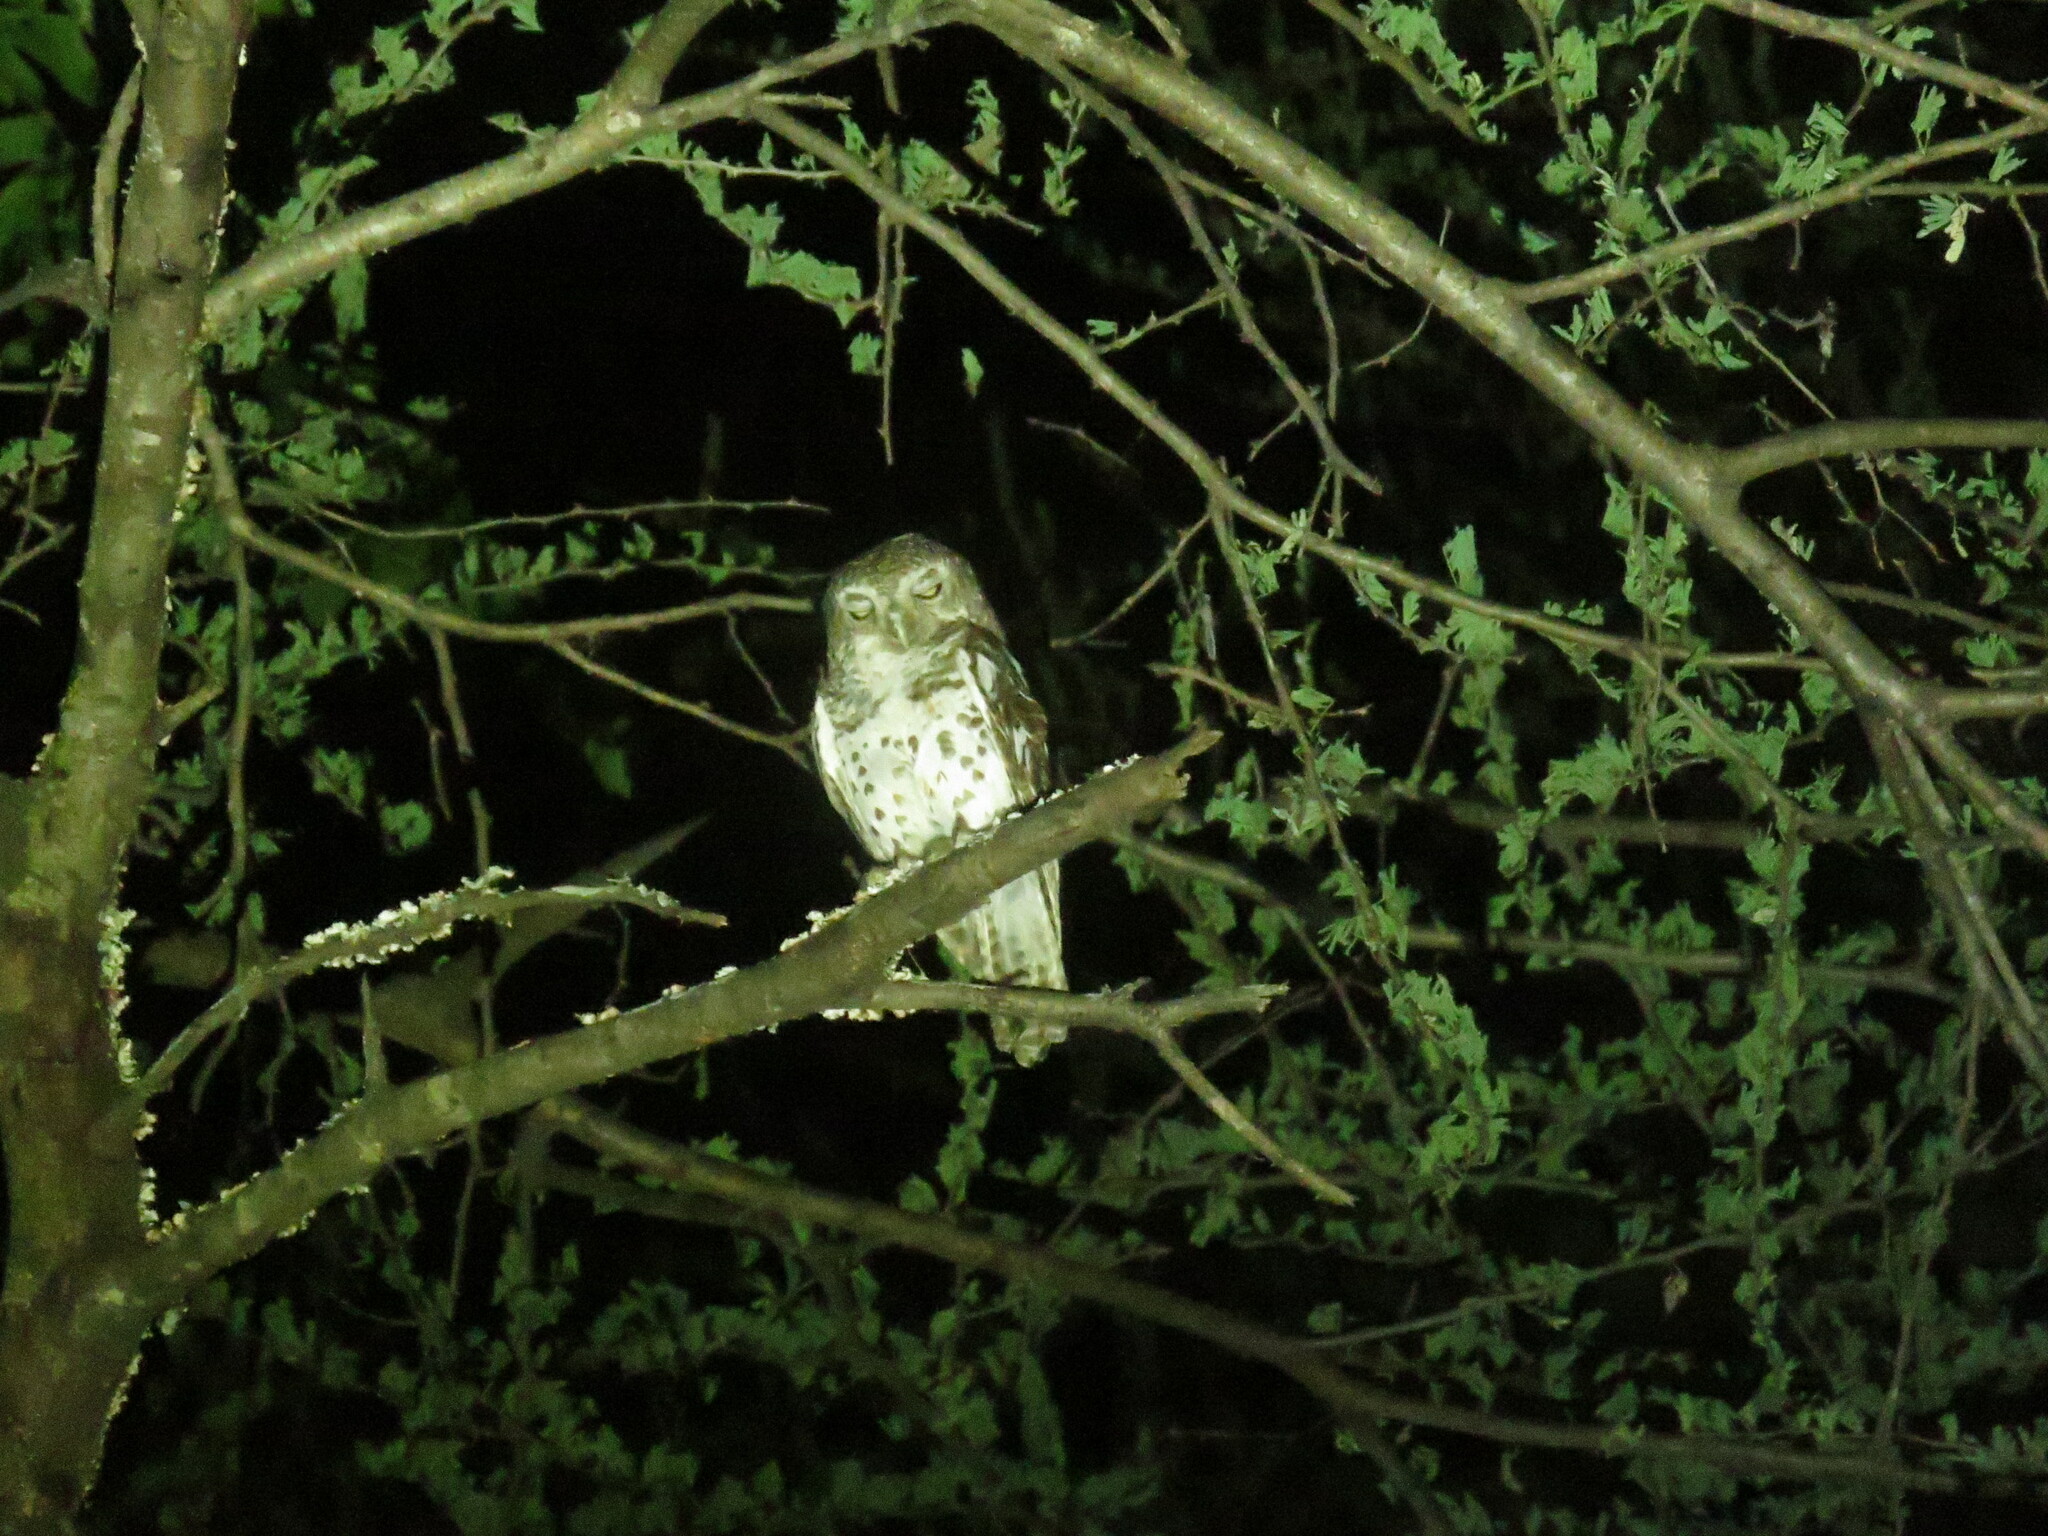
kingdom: Animalia
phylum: Chordata
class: Aves
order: Strigiformes
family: Strigidae
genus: Glaucidium
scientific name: Glaucidium capense
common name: African barred owlet
